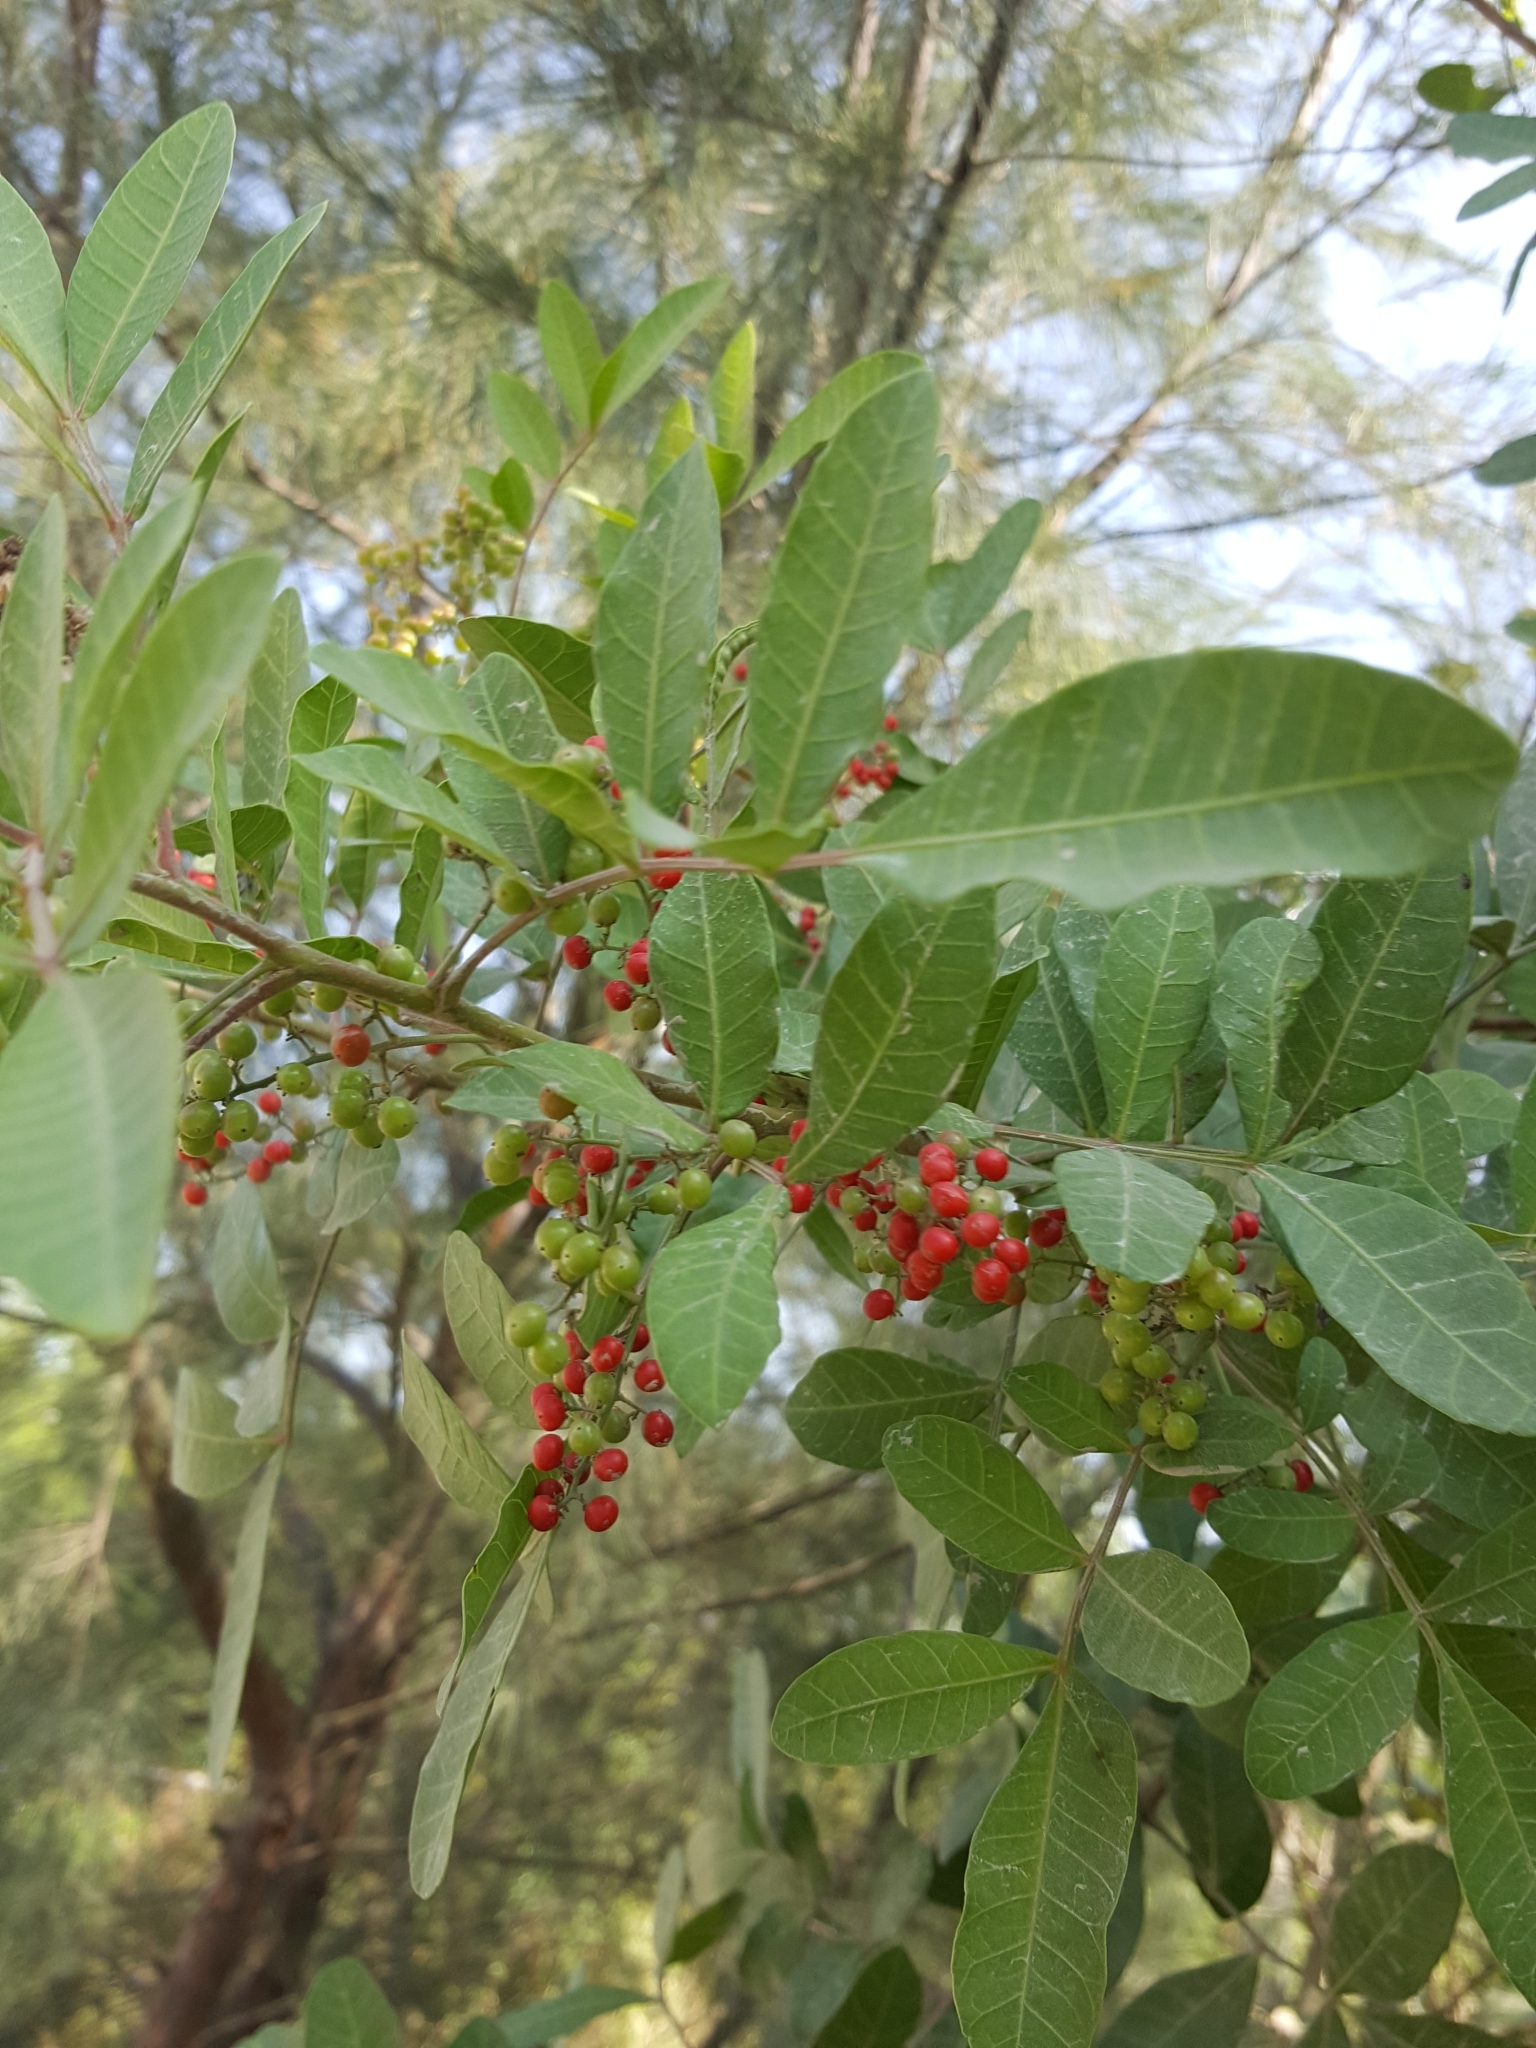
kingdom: Plantae
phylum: Tracheophyta
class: Magnoliopsida
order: Sapindales
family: Anacardiaceae
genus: Schinus
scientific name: Schinus terebinthifolia
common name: Brazilian peppertree
